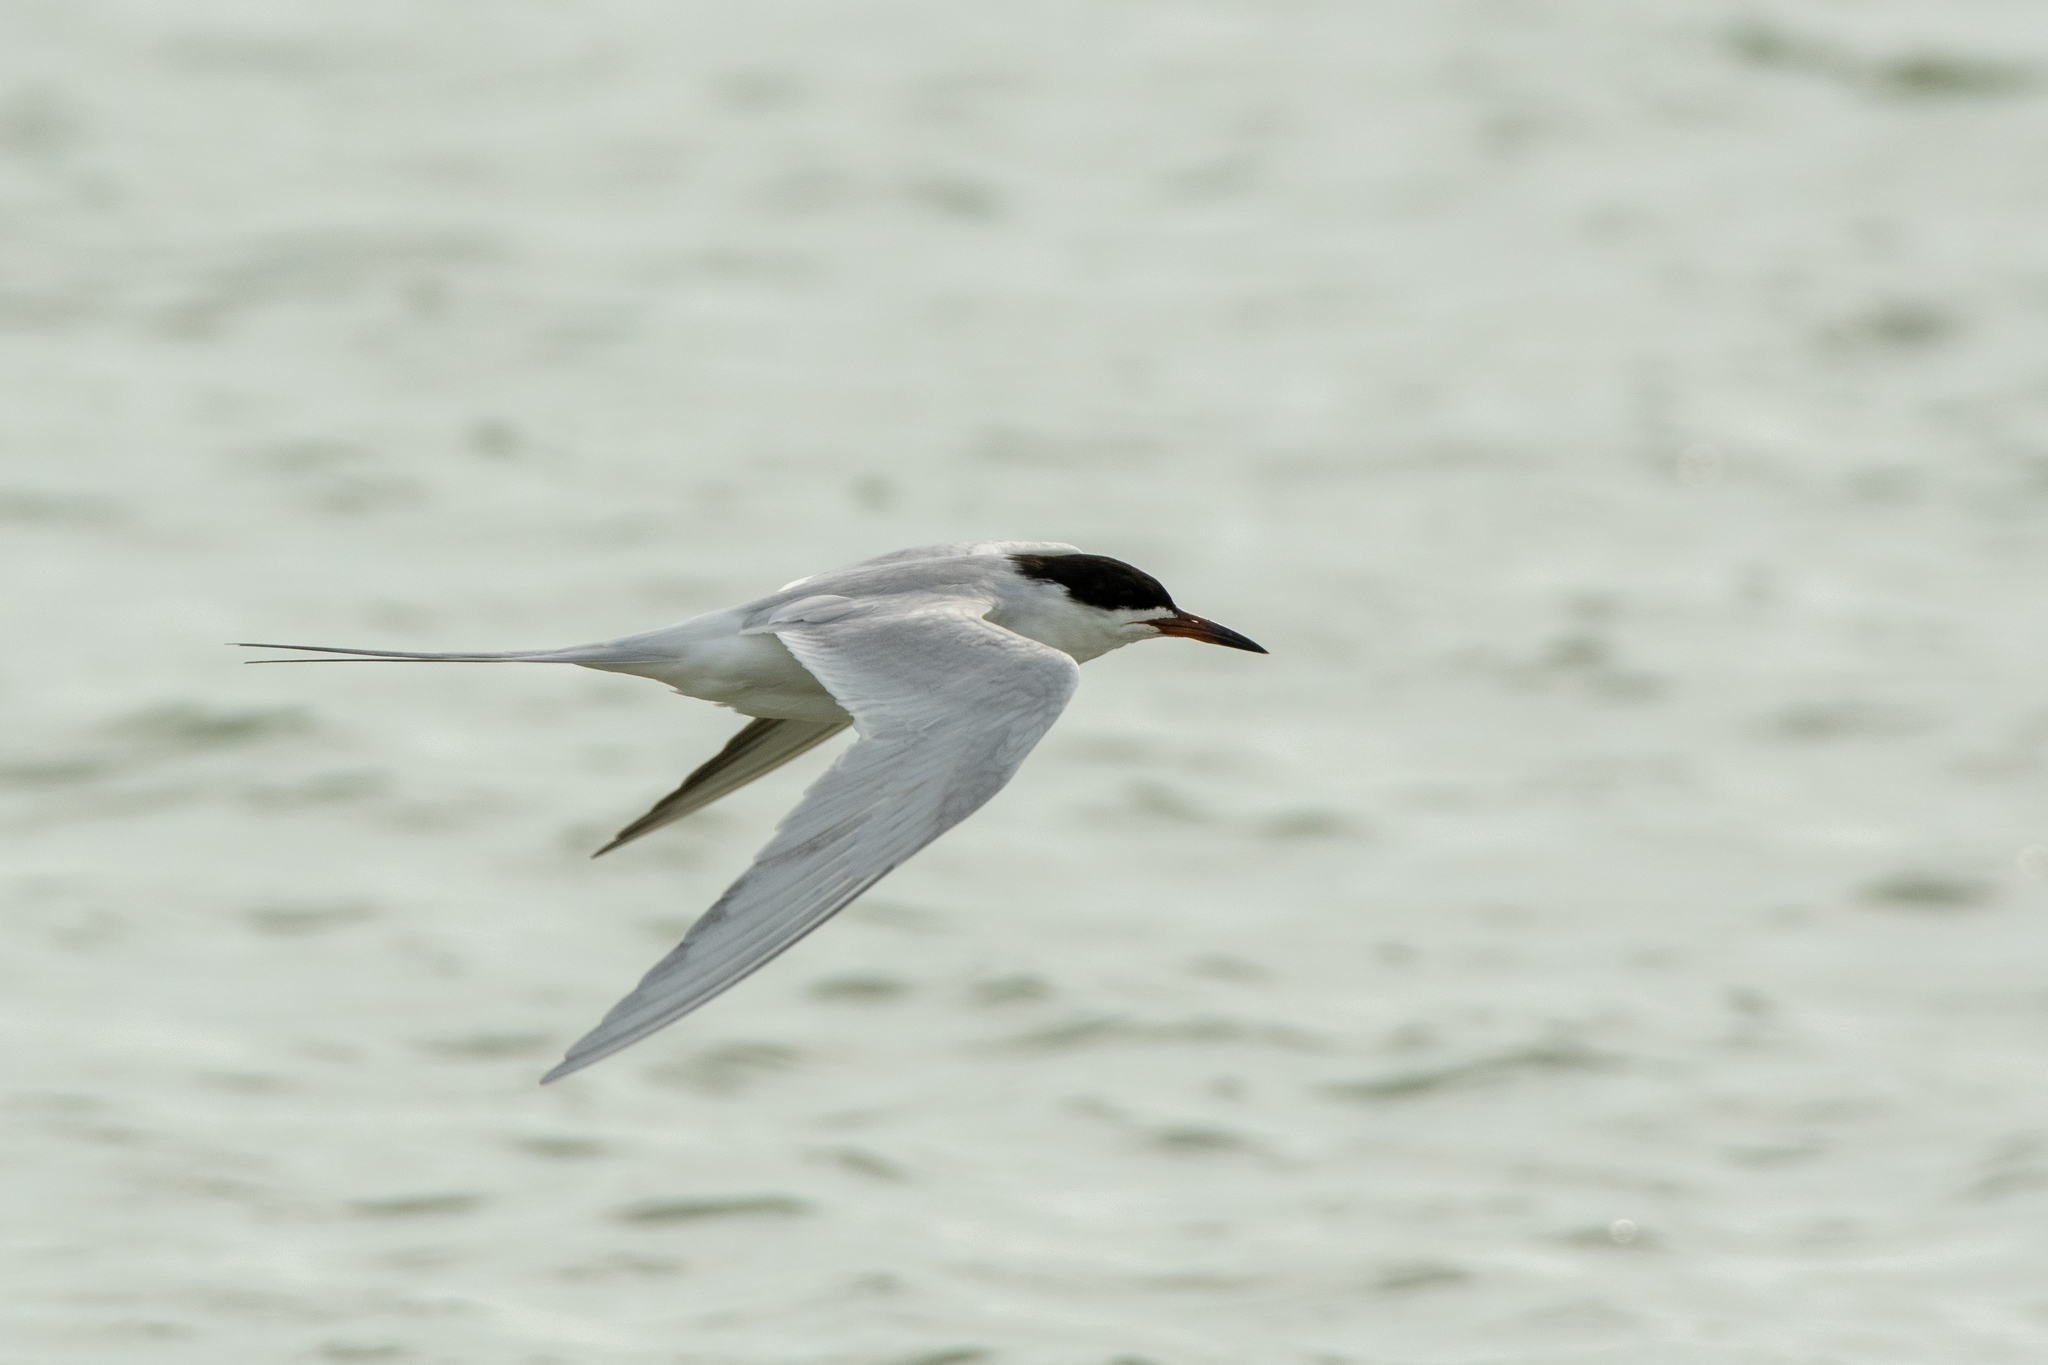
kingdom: Animalia
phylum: Chordata
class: Aves
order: Charadriiformes
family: Laridae
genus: Sterna
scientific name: Sterna forsteri
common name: Forster's tern
